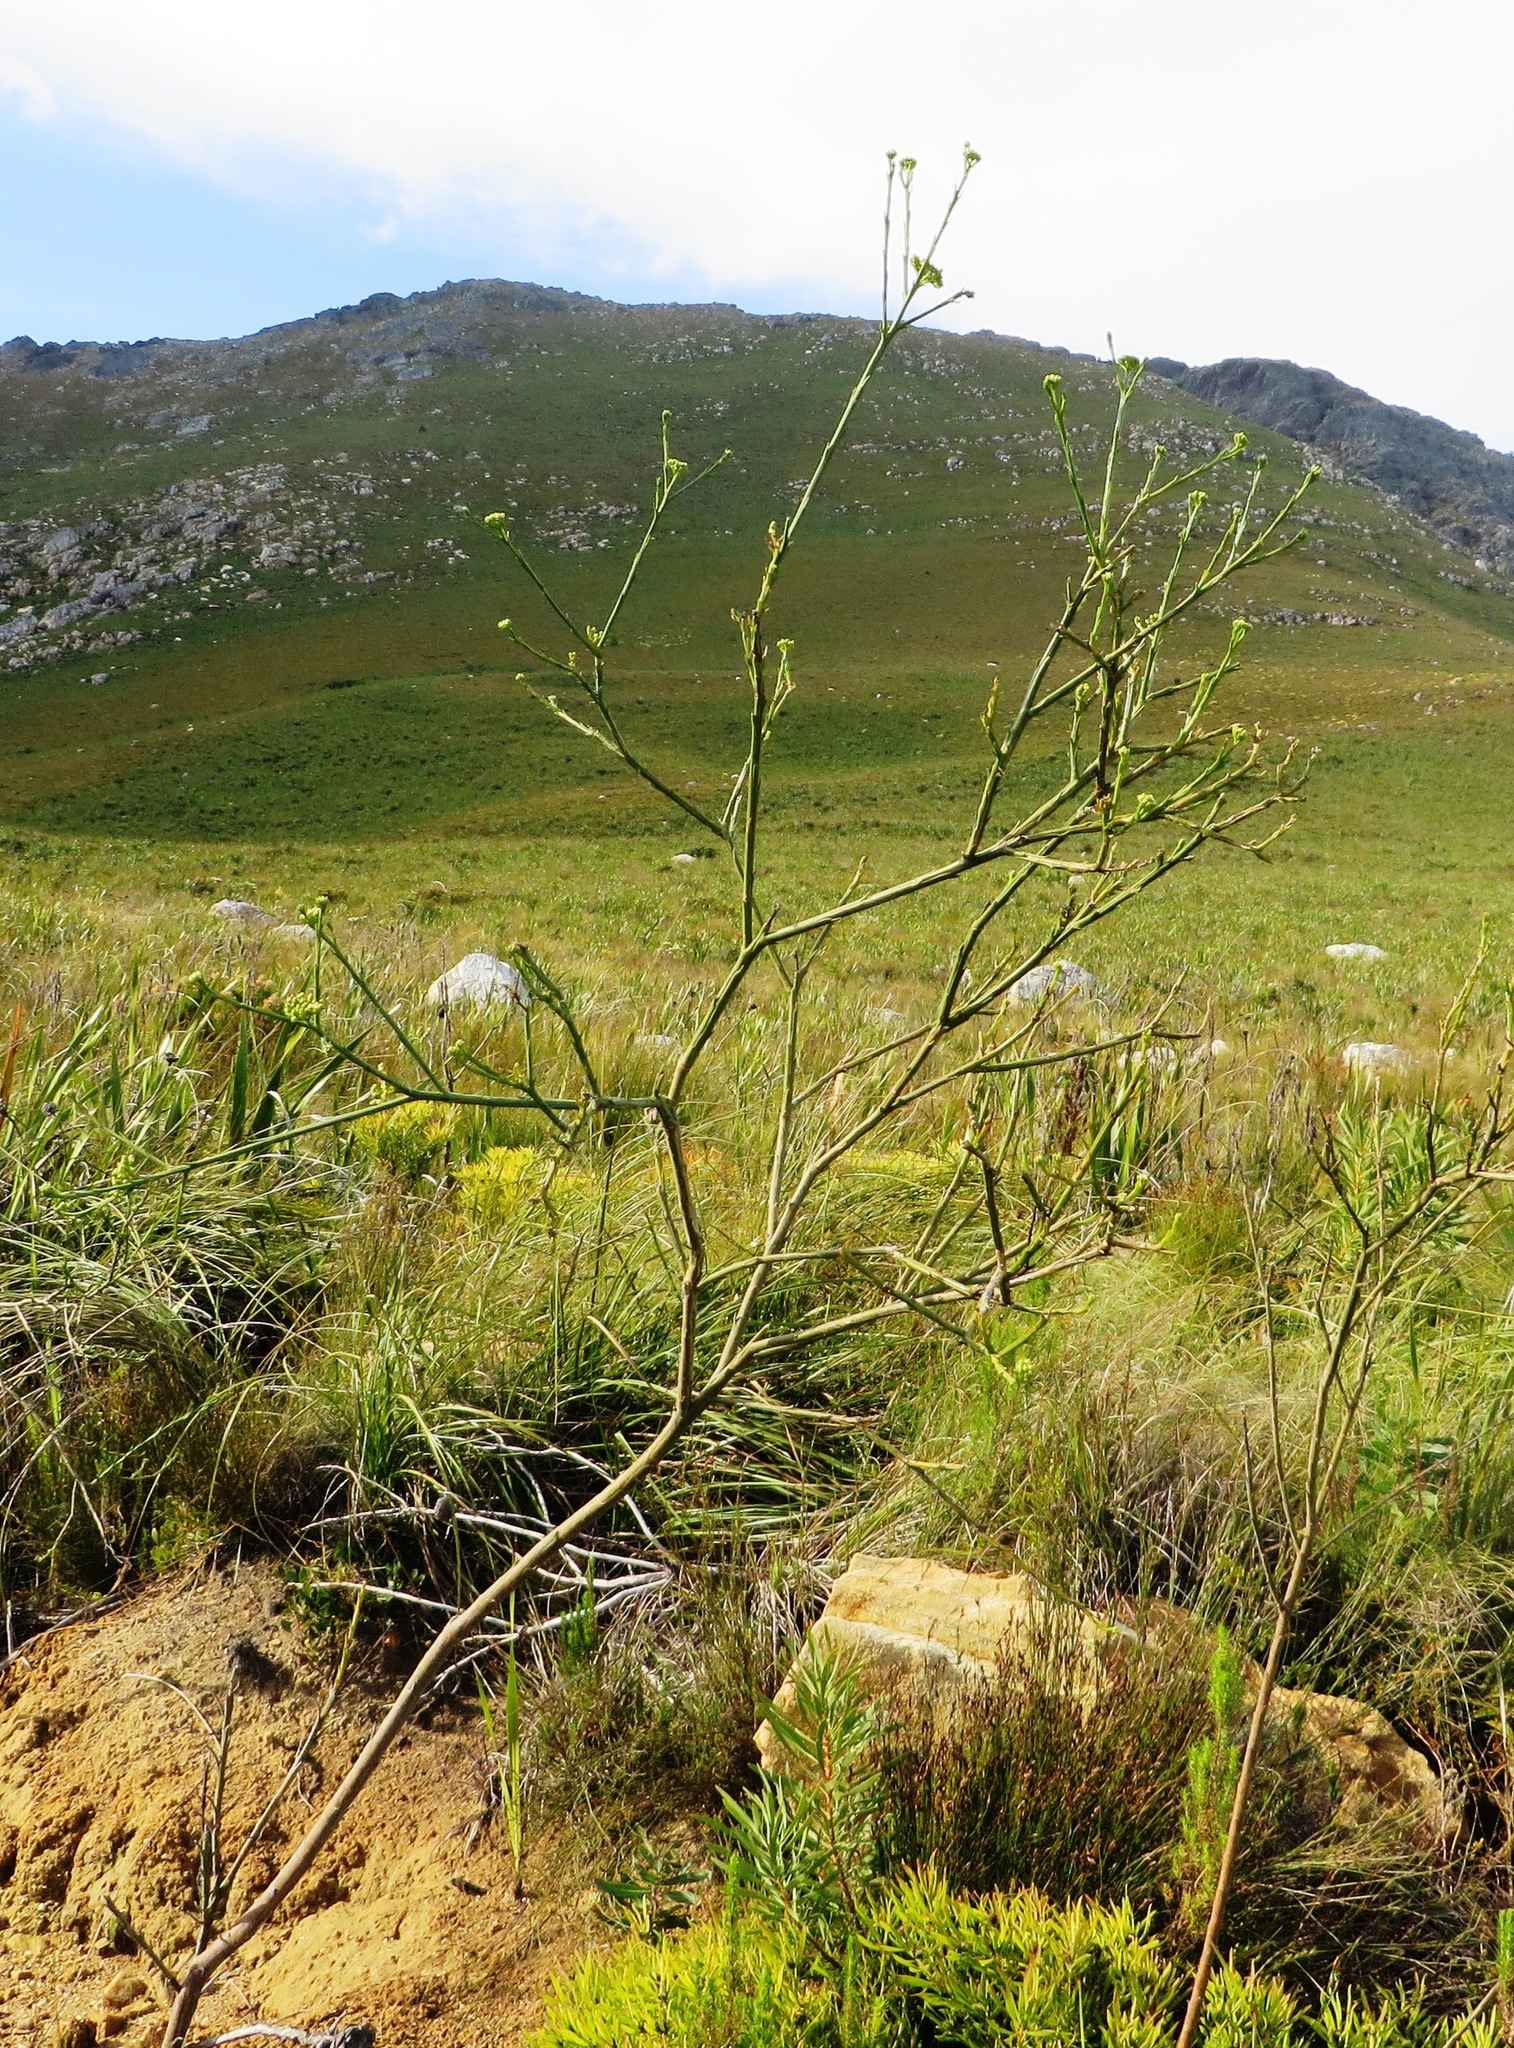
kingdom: Plantae
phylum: Tracheophyta
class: Magnoliopsida
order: Santalales
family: Thesiaceae
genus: Thesium
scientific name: Thesium strictum
